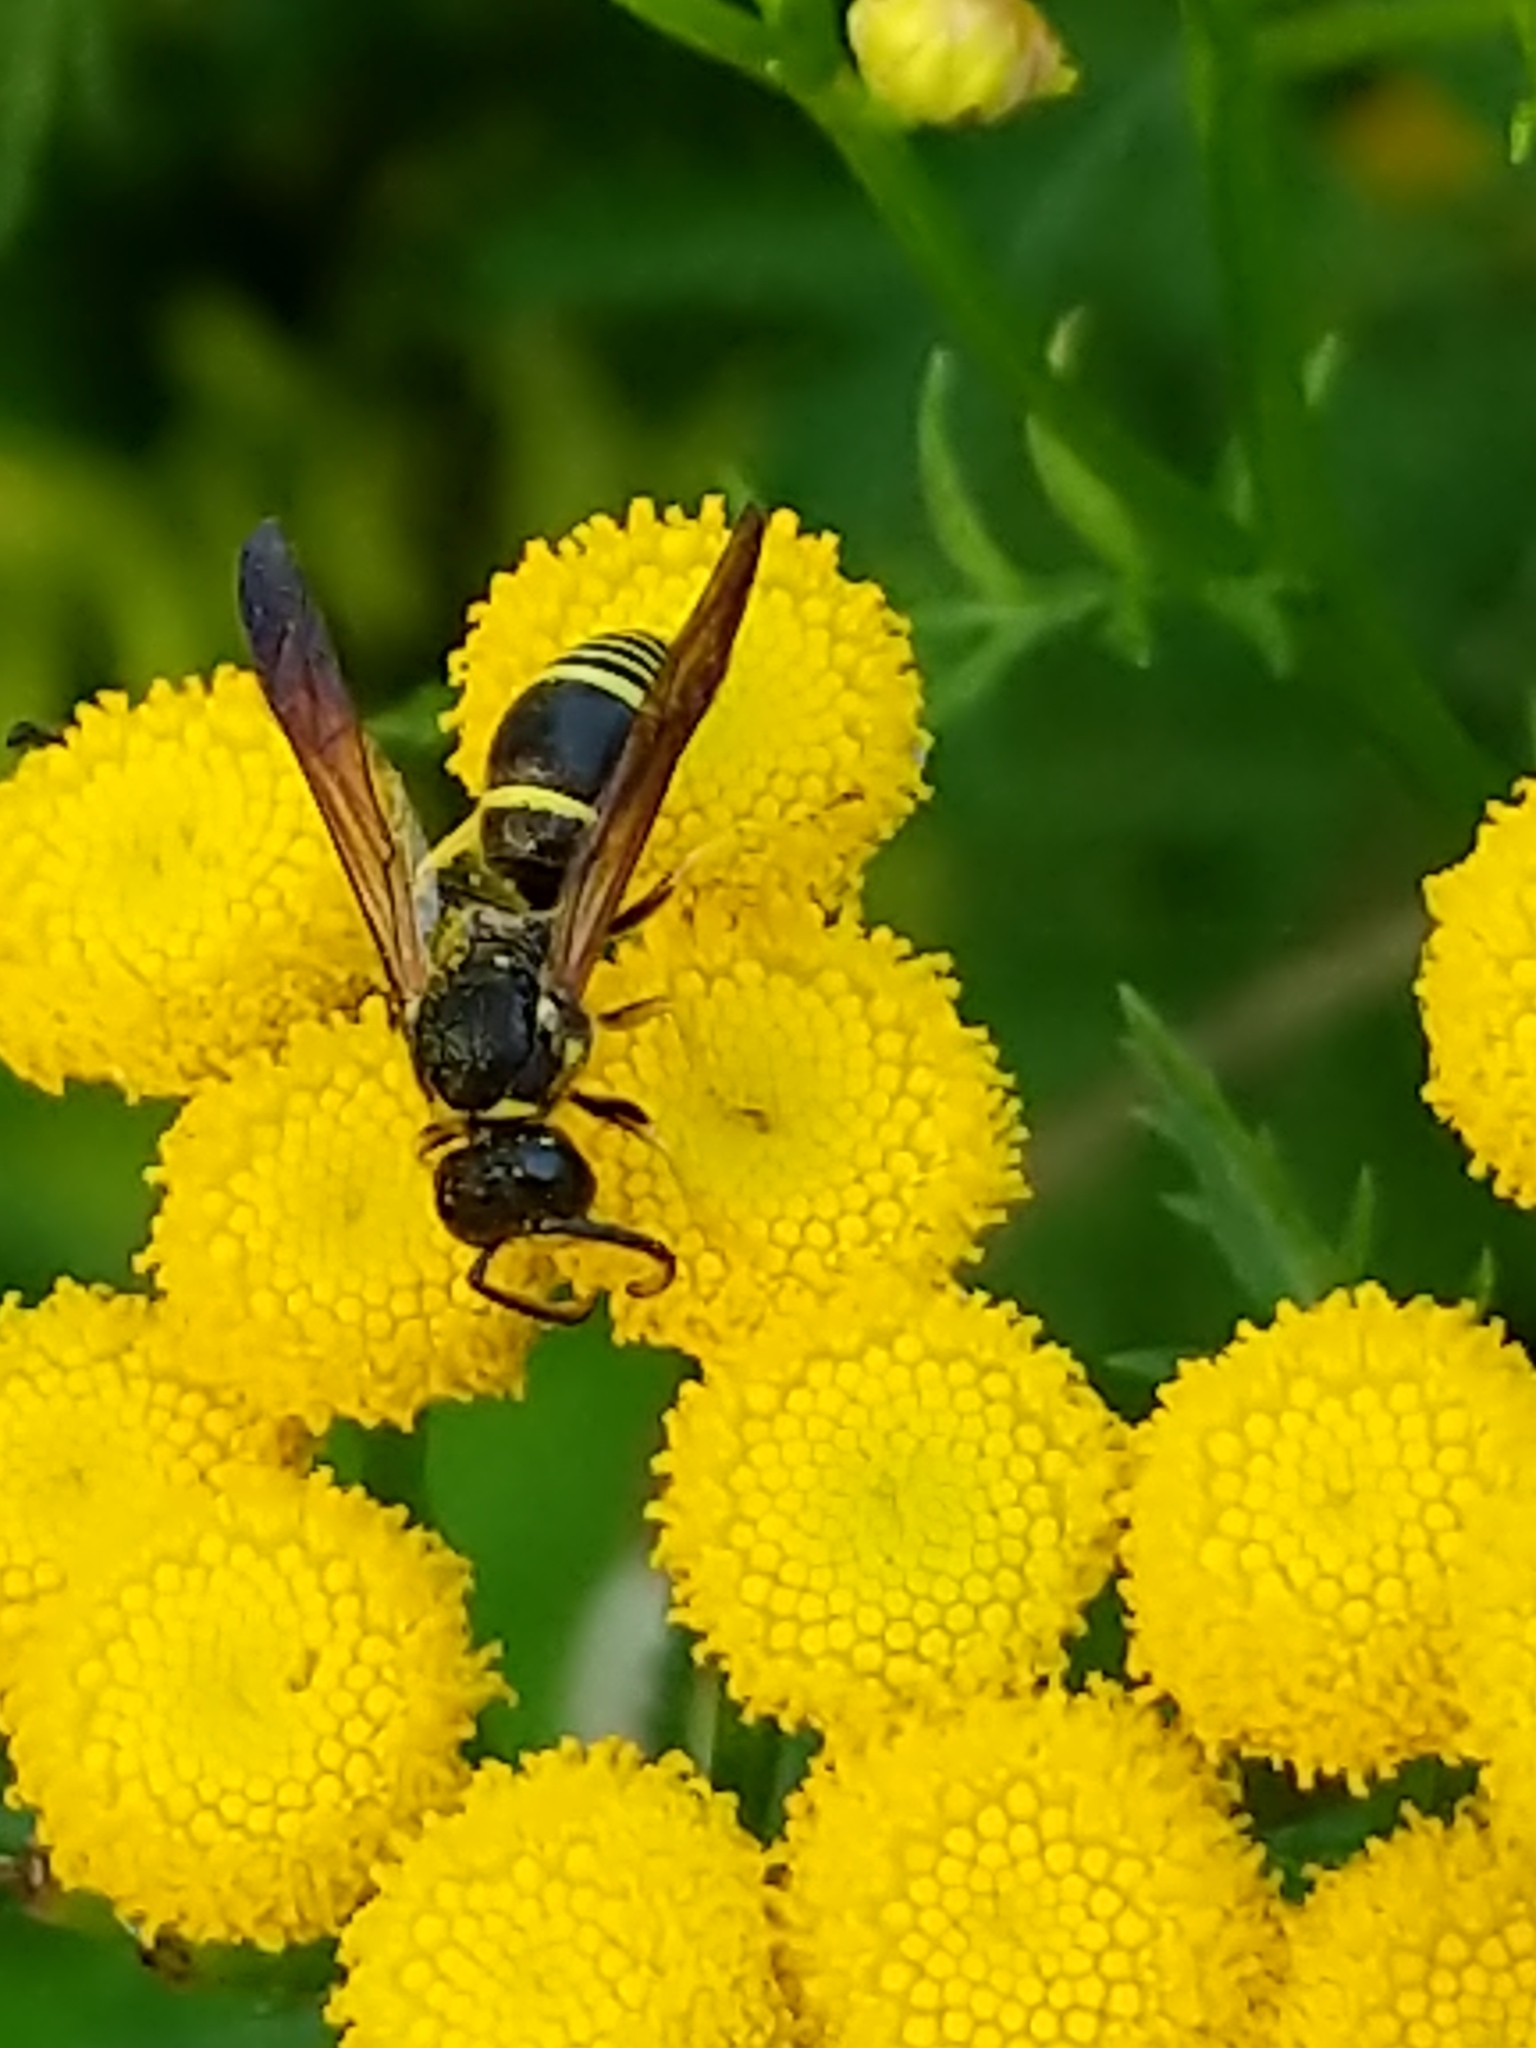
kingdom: Animalia
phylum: Arthropoda
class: Insecta
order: Hymenoptera
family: Vespidae
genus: Ancistrocerus
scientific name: Ancistrocerus
